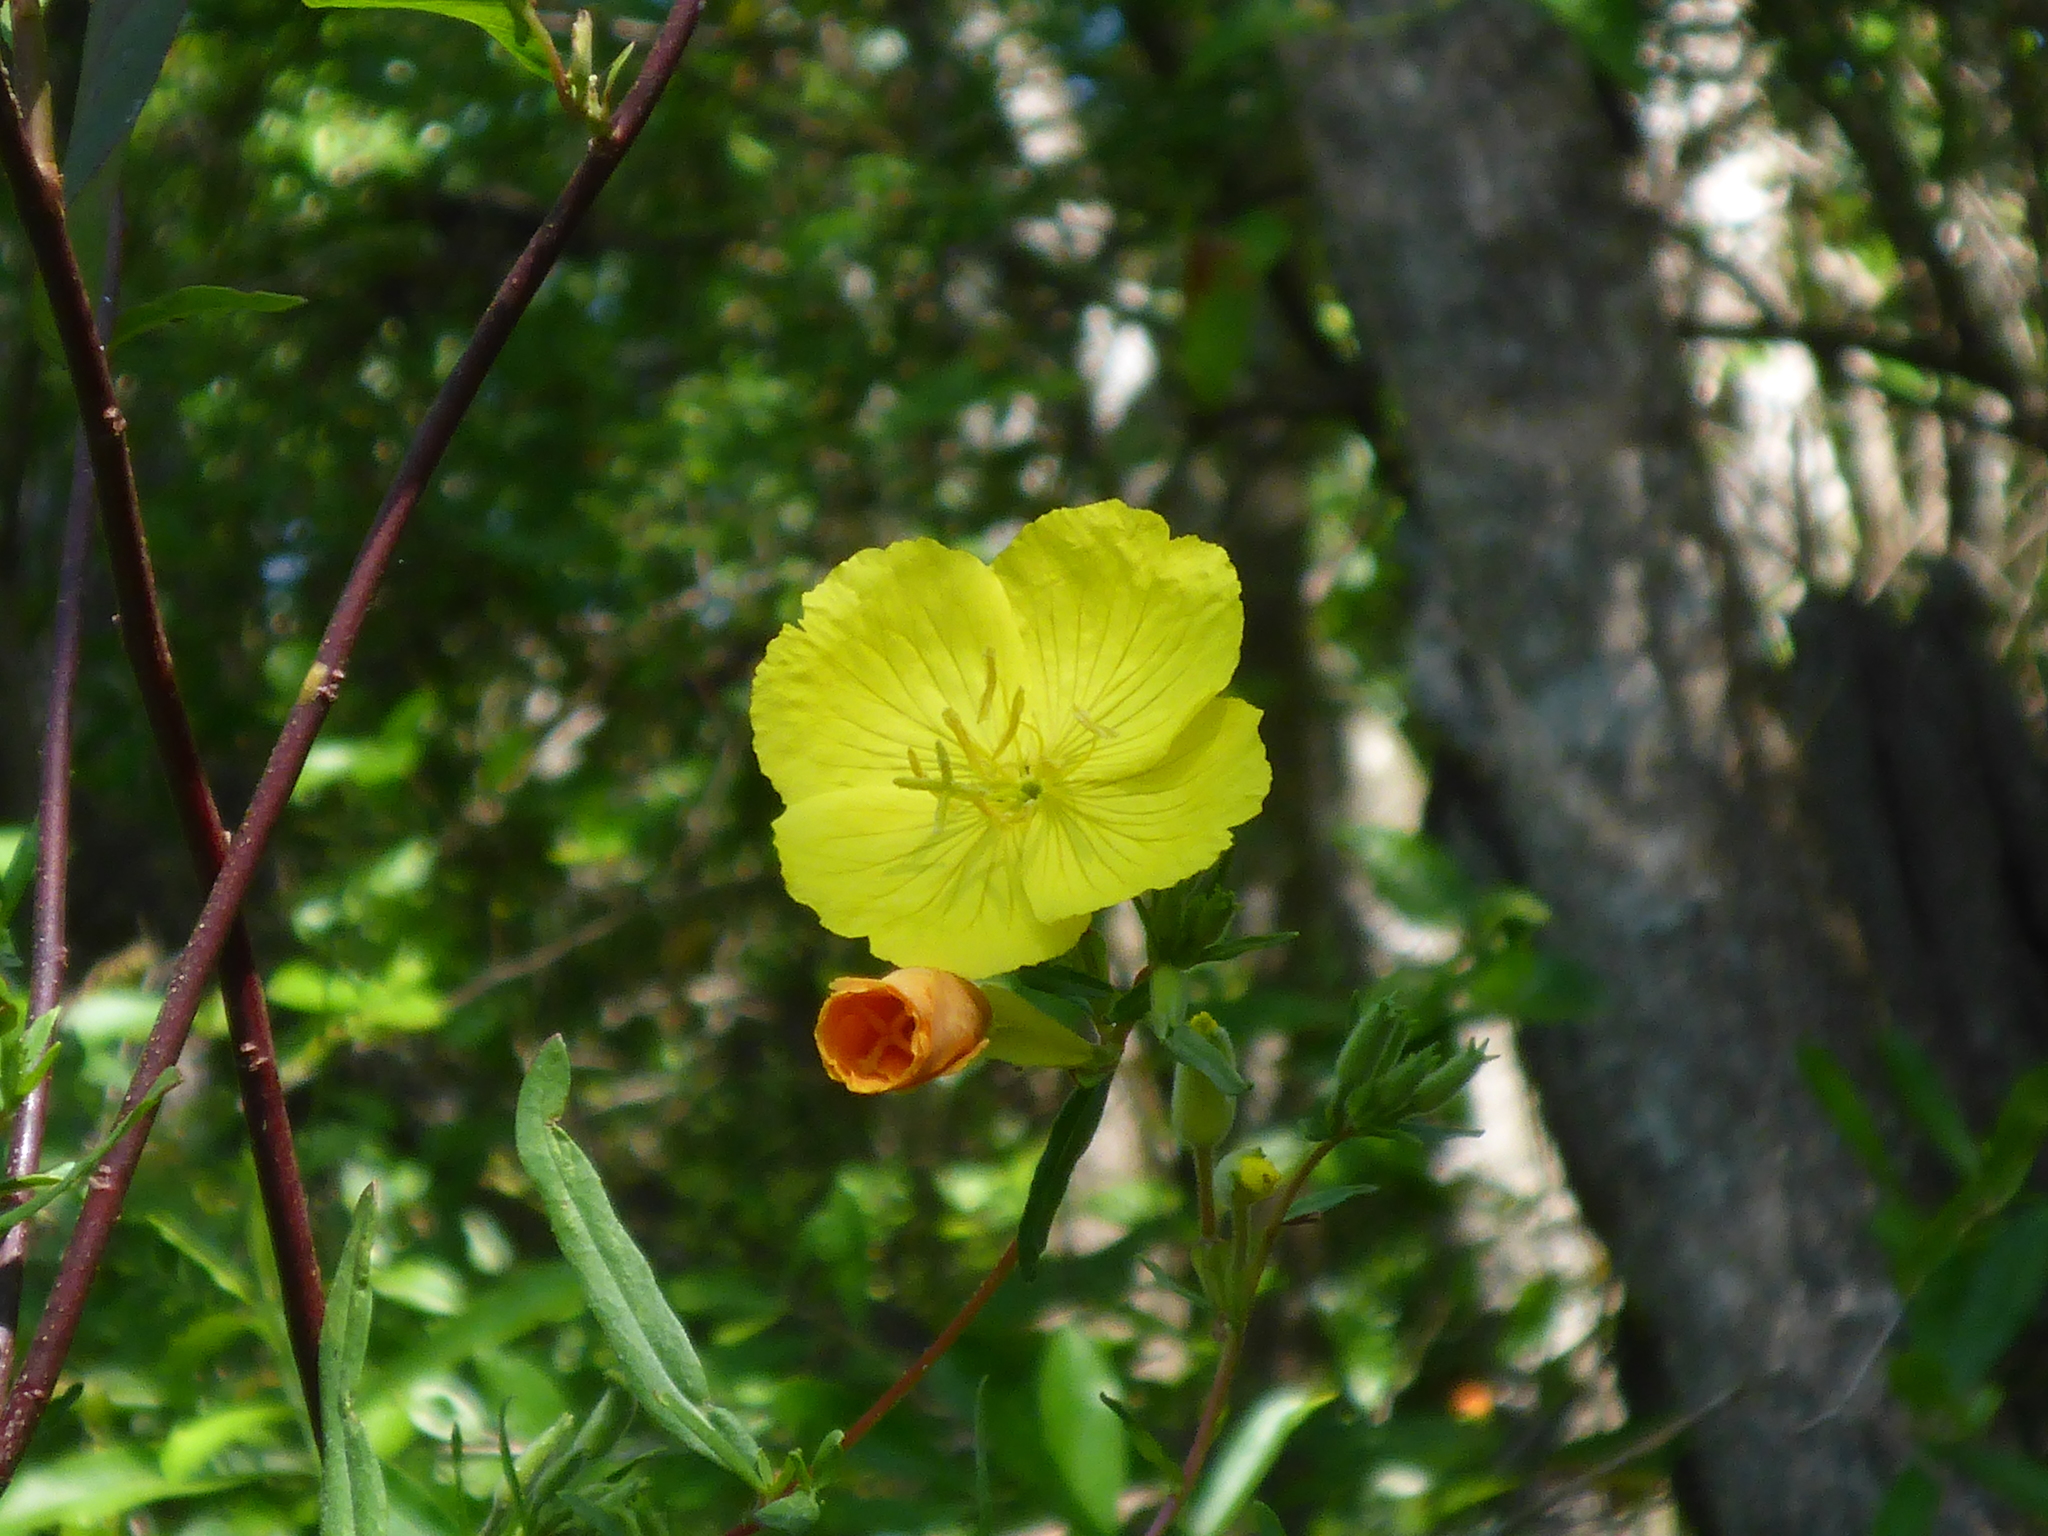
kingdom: Plantae
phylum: Tracheophyta
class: Magnoliopsida
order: Myrtales
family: Onagraceae
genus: Oenothera
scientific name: Oenothera fruticosa
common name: Southern sundrops
